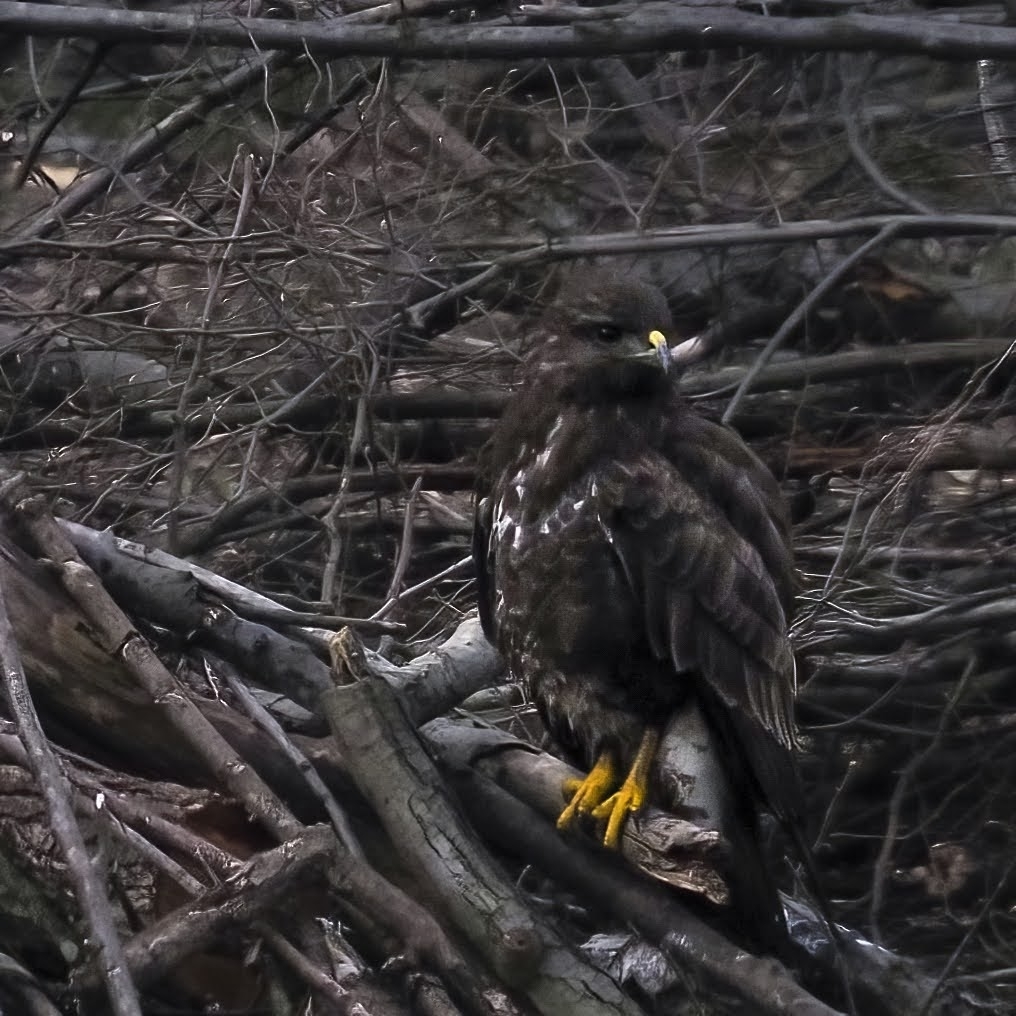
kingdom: Animalia
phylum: Chordata
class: Aves
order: Accipitriformes
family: Accipitridae
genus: Buteo
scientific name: Buteo buteo
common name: Common buzzard
